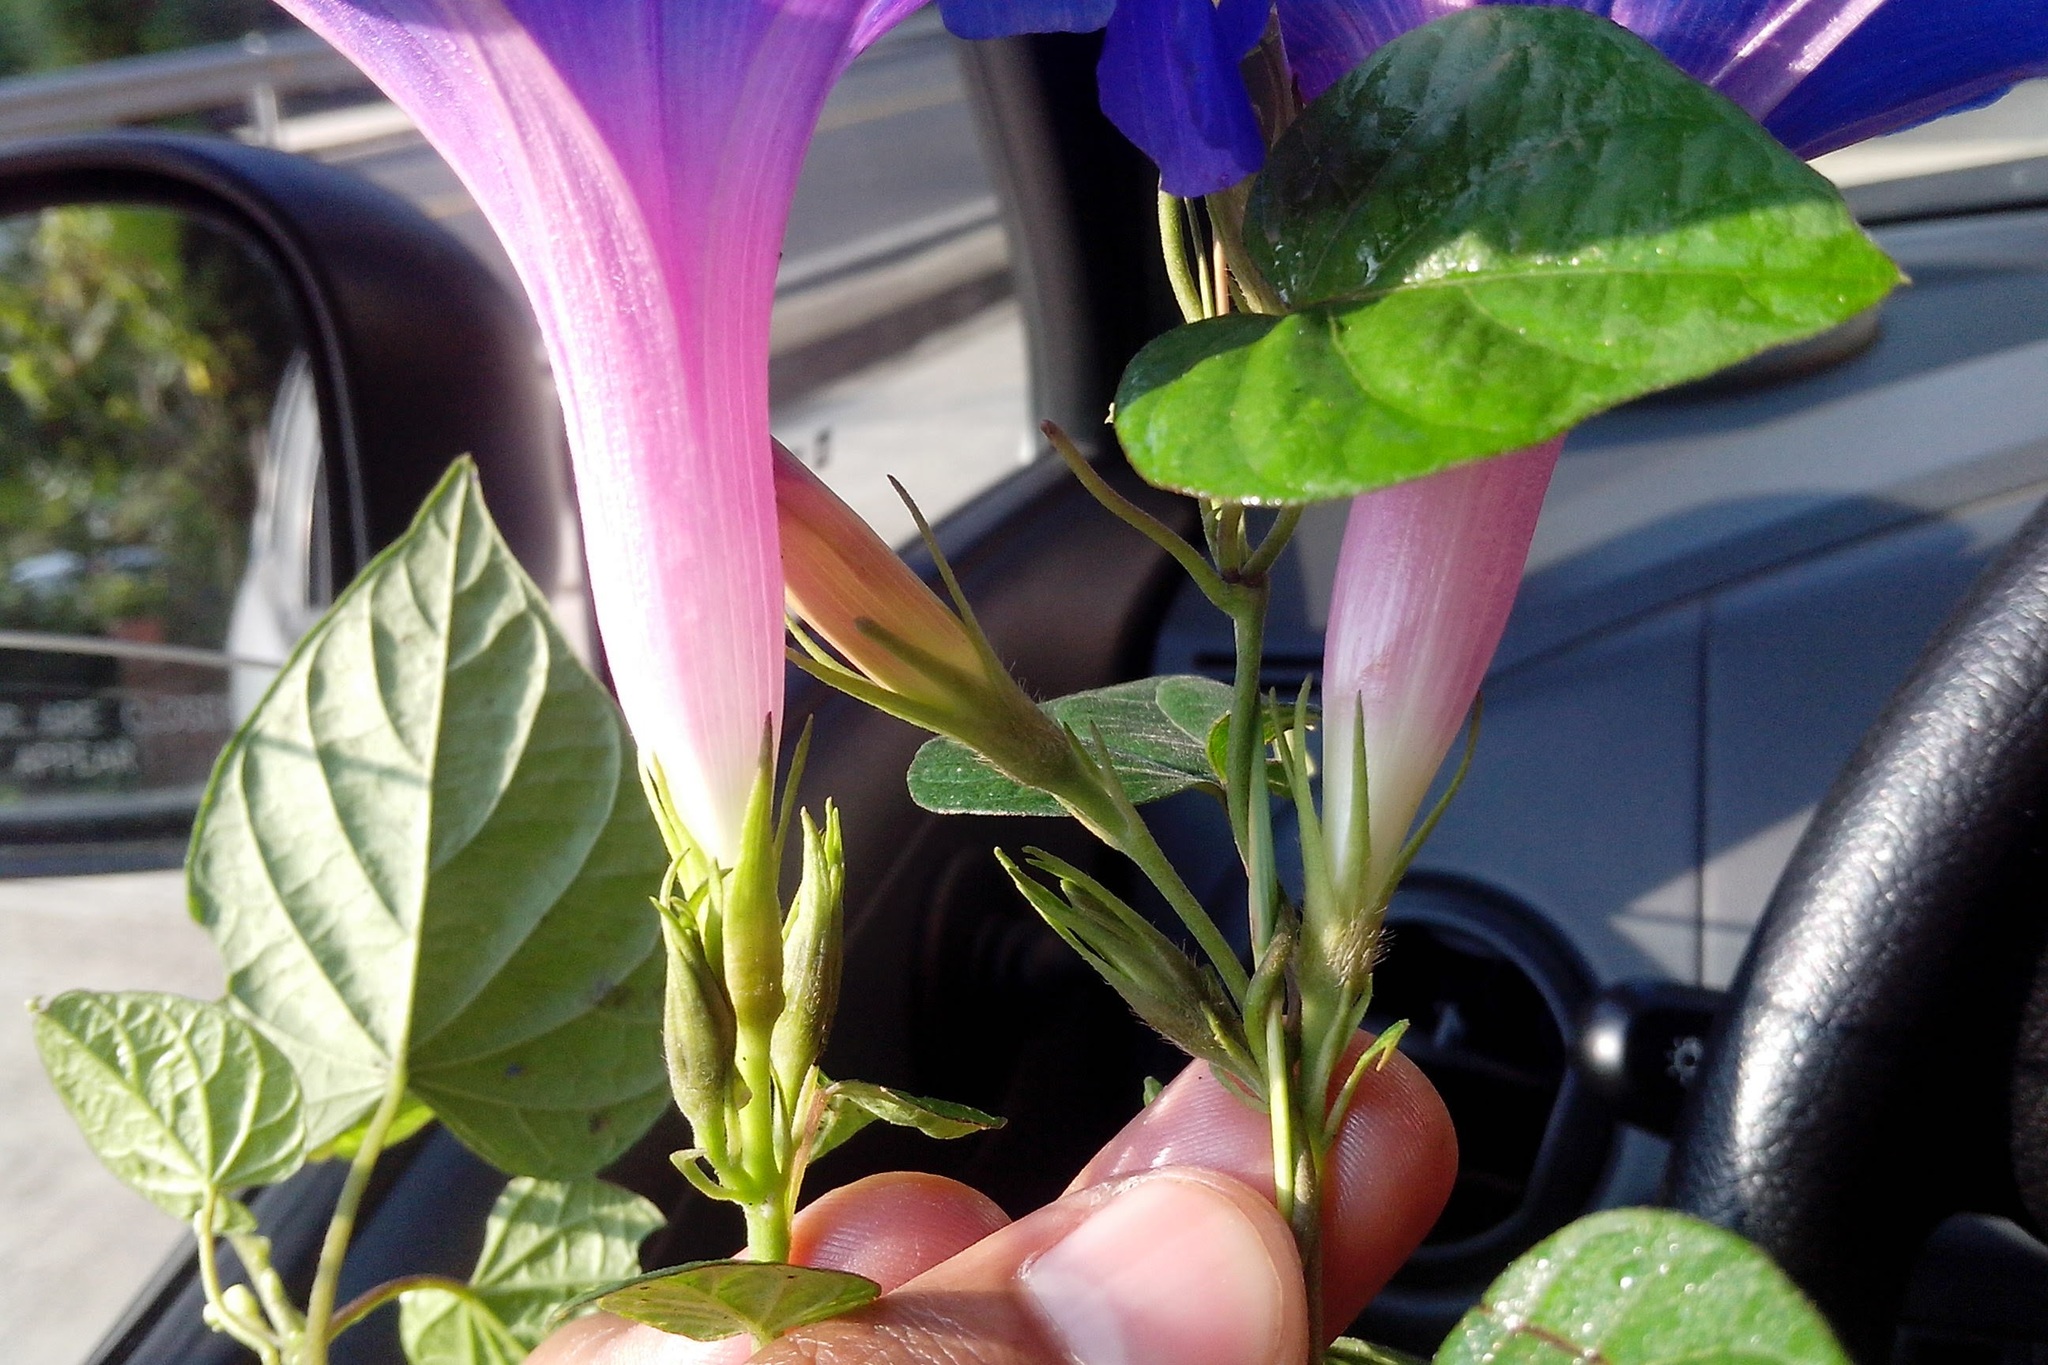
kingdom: Plantae
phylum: Tracheophyta
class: Magnoliopsida
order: Solanales
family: Convolvulaceae
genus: Ipomoea
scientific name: Ipomoea indica
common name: Blue dawnflower
